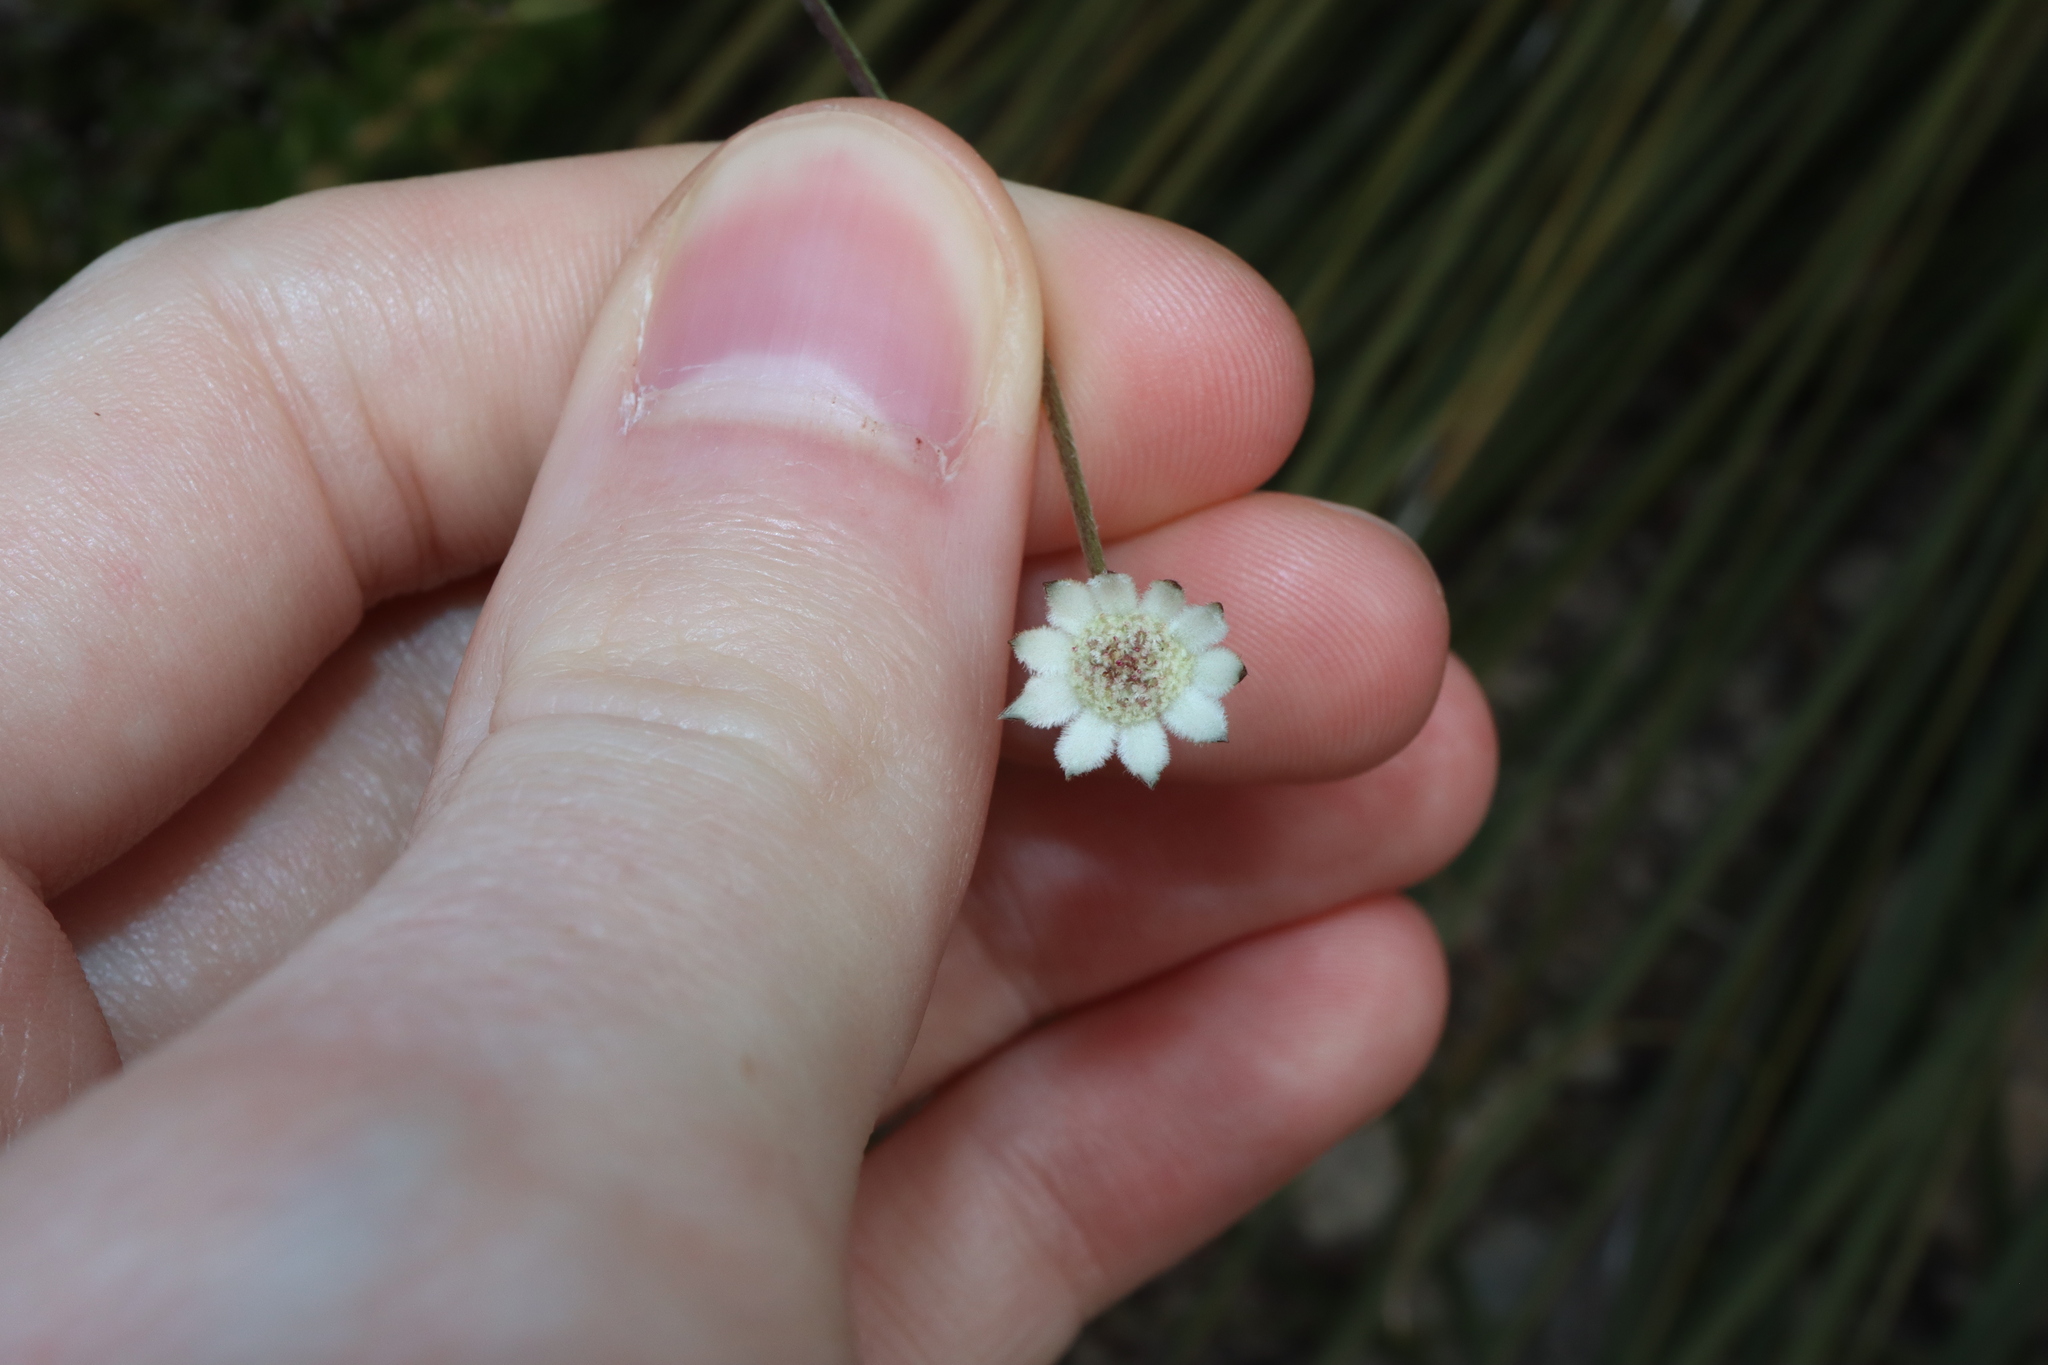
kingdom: Plantae
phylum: Tracheophyta
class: Magnoliopsida
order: Apiales
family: Apiaceae
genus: Actinotus
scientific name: Actinotus minor
